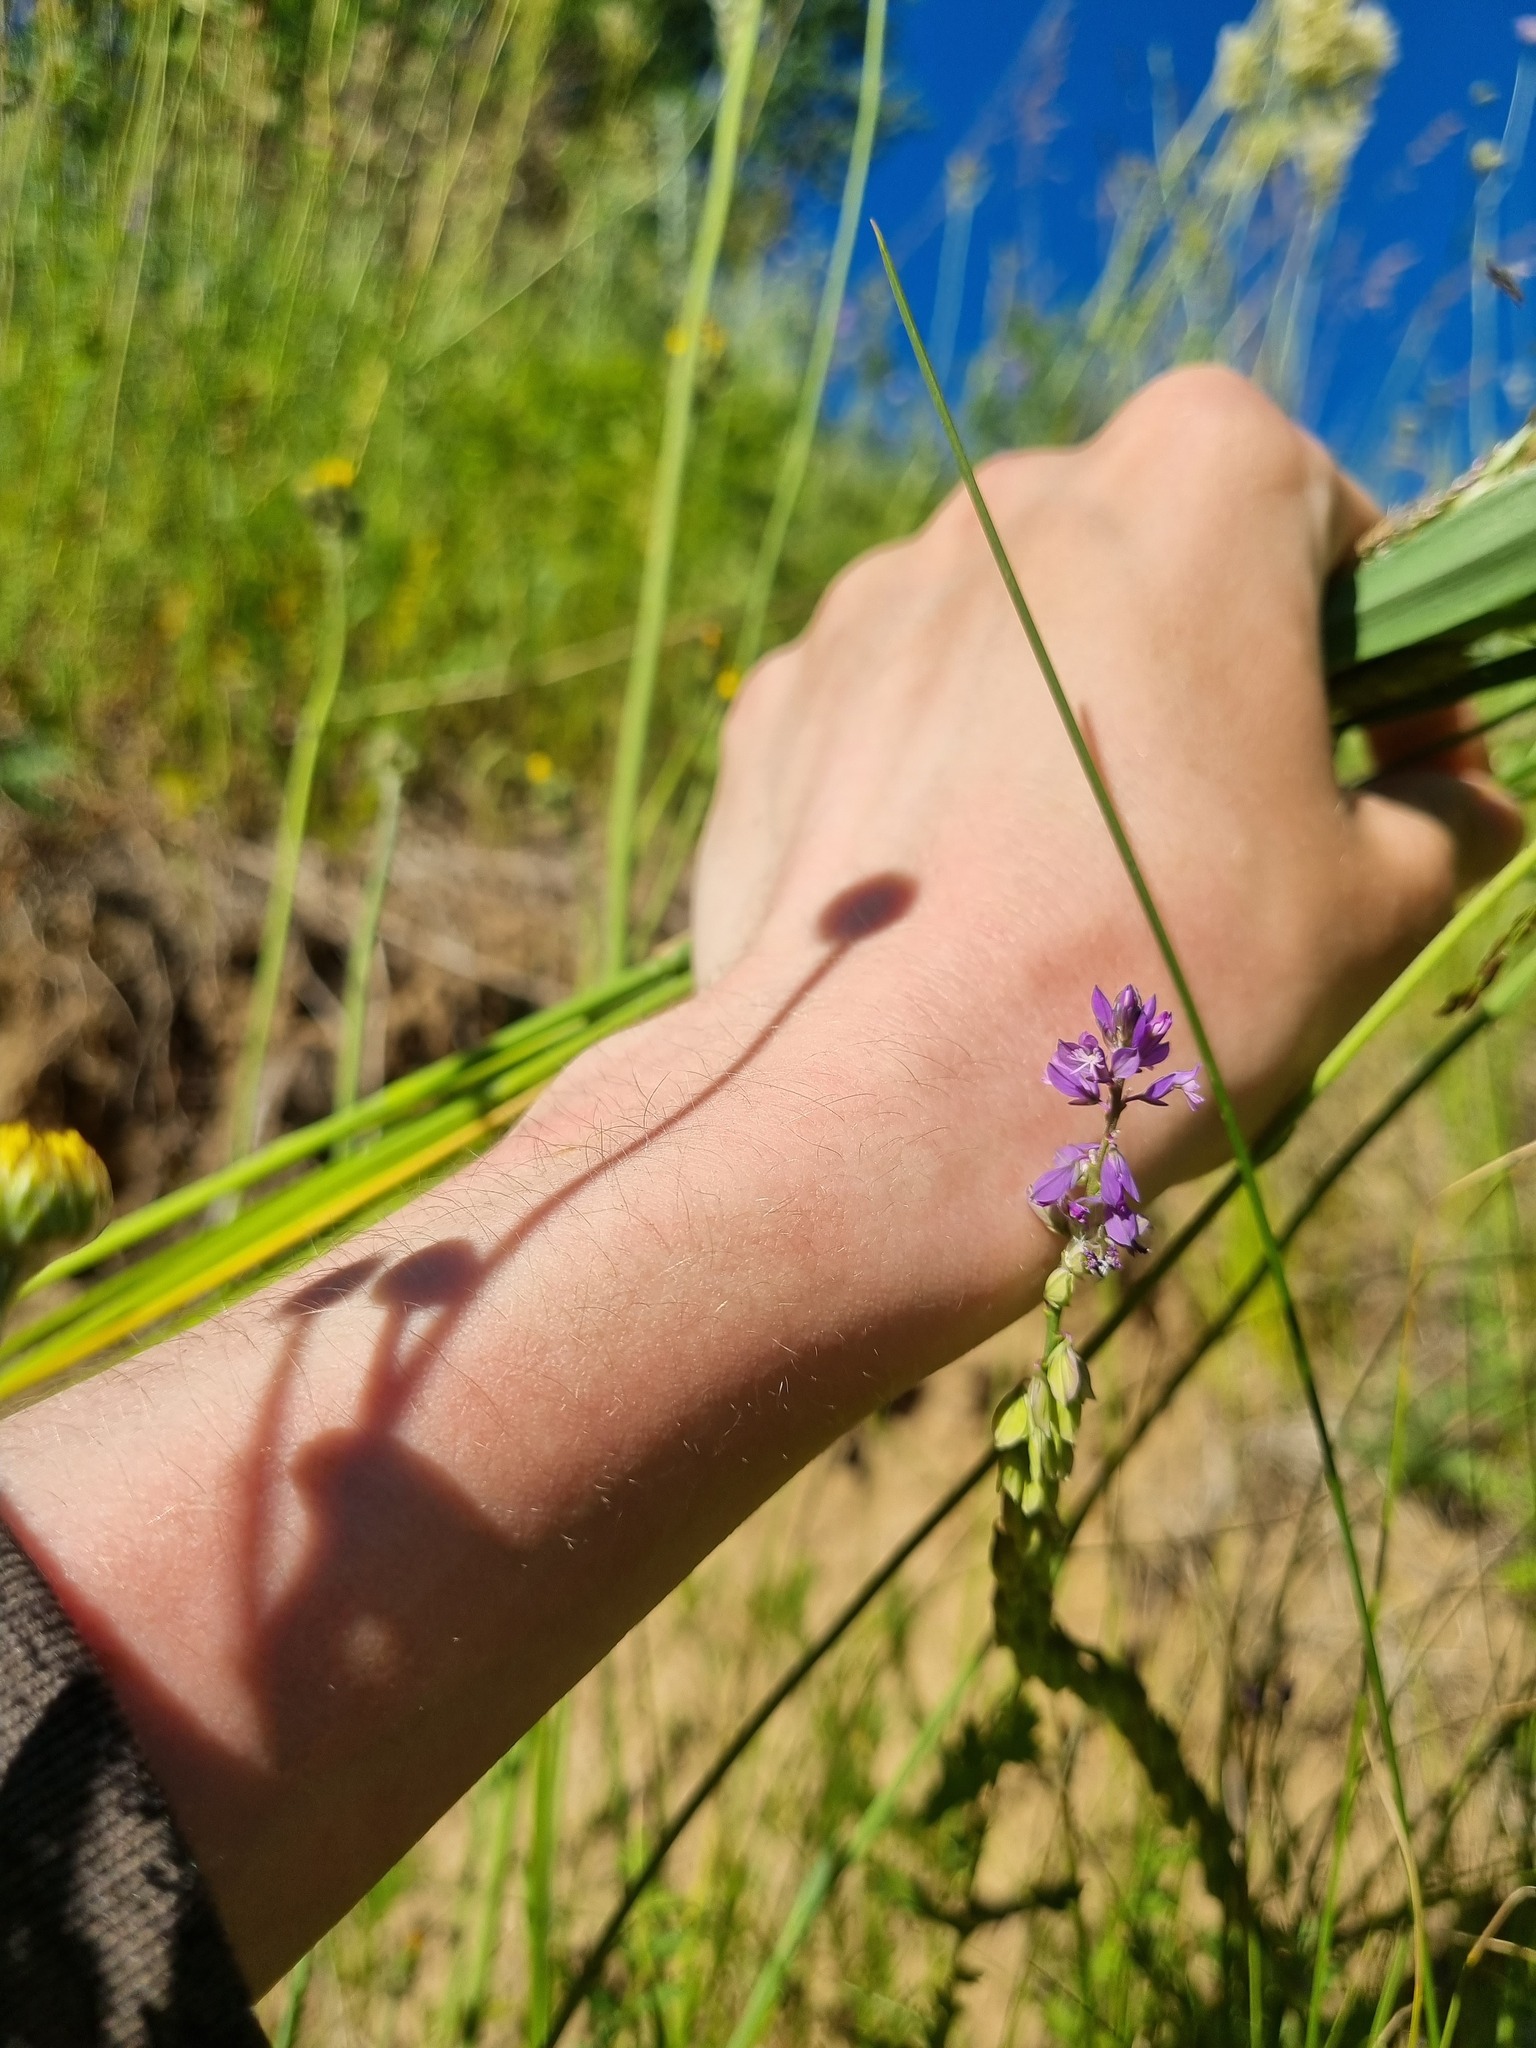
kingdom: Plantae
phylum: Tracheophyta
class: Magnoliopsida
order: Fabales
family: Polygalaceae
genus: Polygala
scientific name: Polygala comosa
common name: Tufted milkwort
